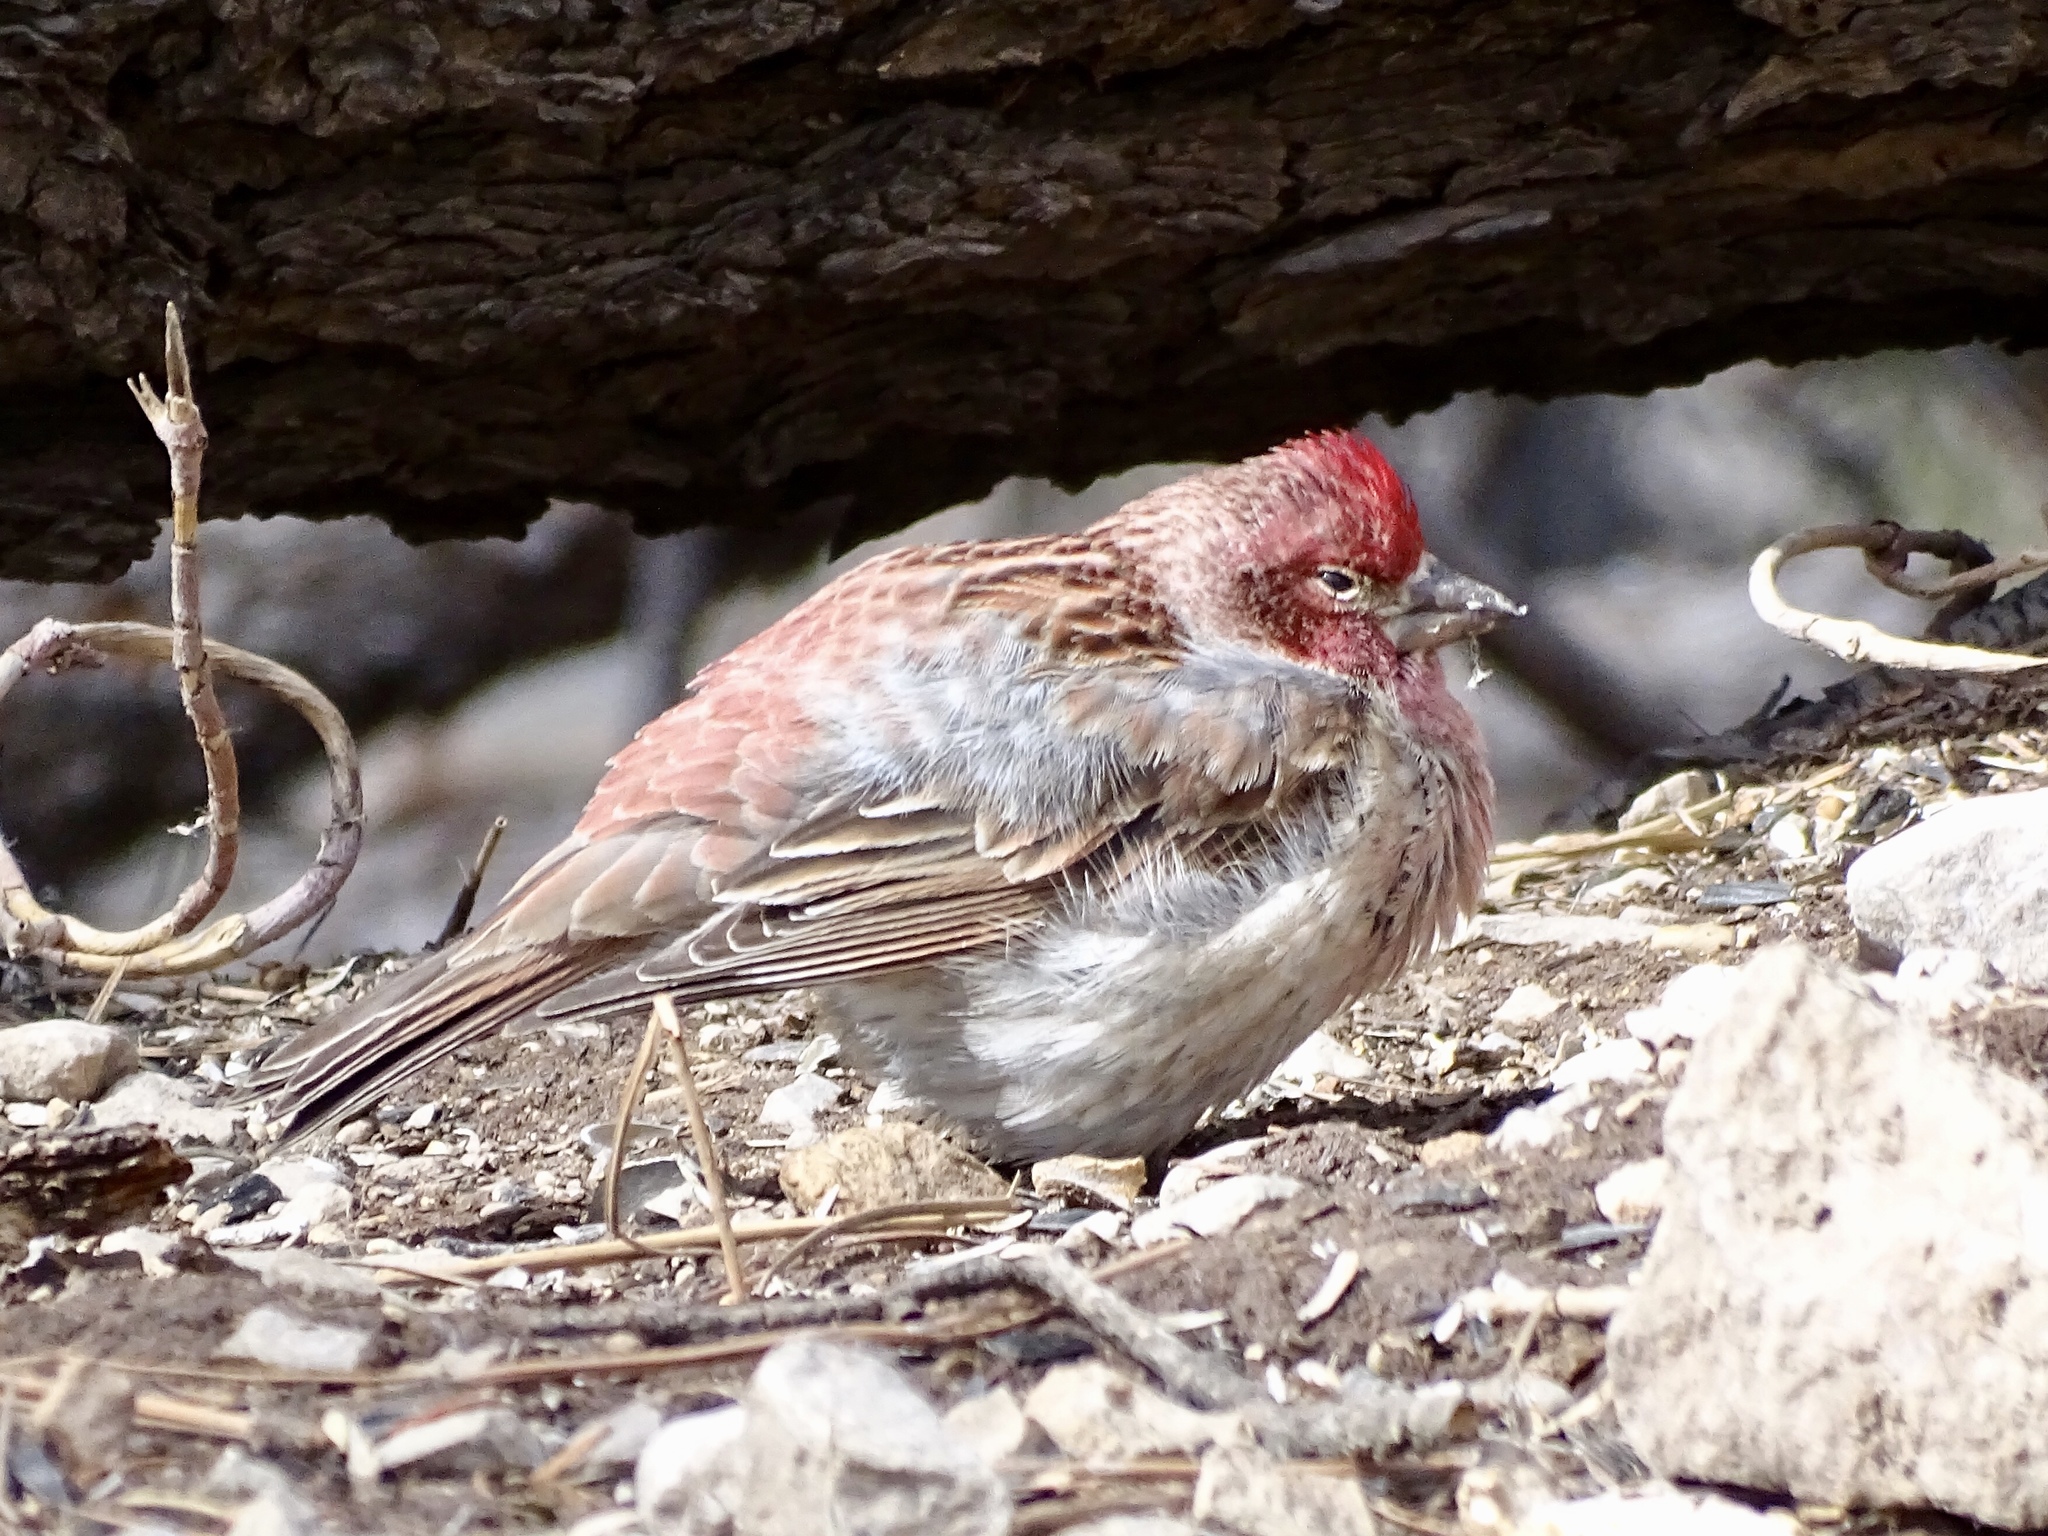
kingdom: Animalia
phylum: Chordata
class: Aves
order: Passeriformes
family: Fringillidae
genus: Haemorhous
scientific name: Haemorhous cassinii
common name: Cassin's finch
